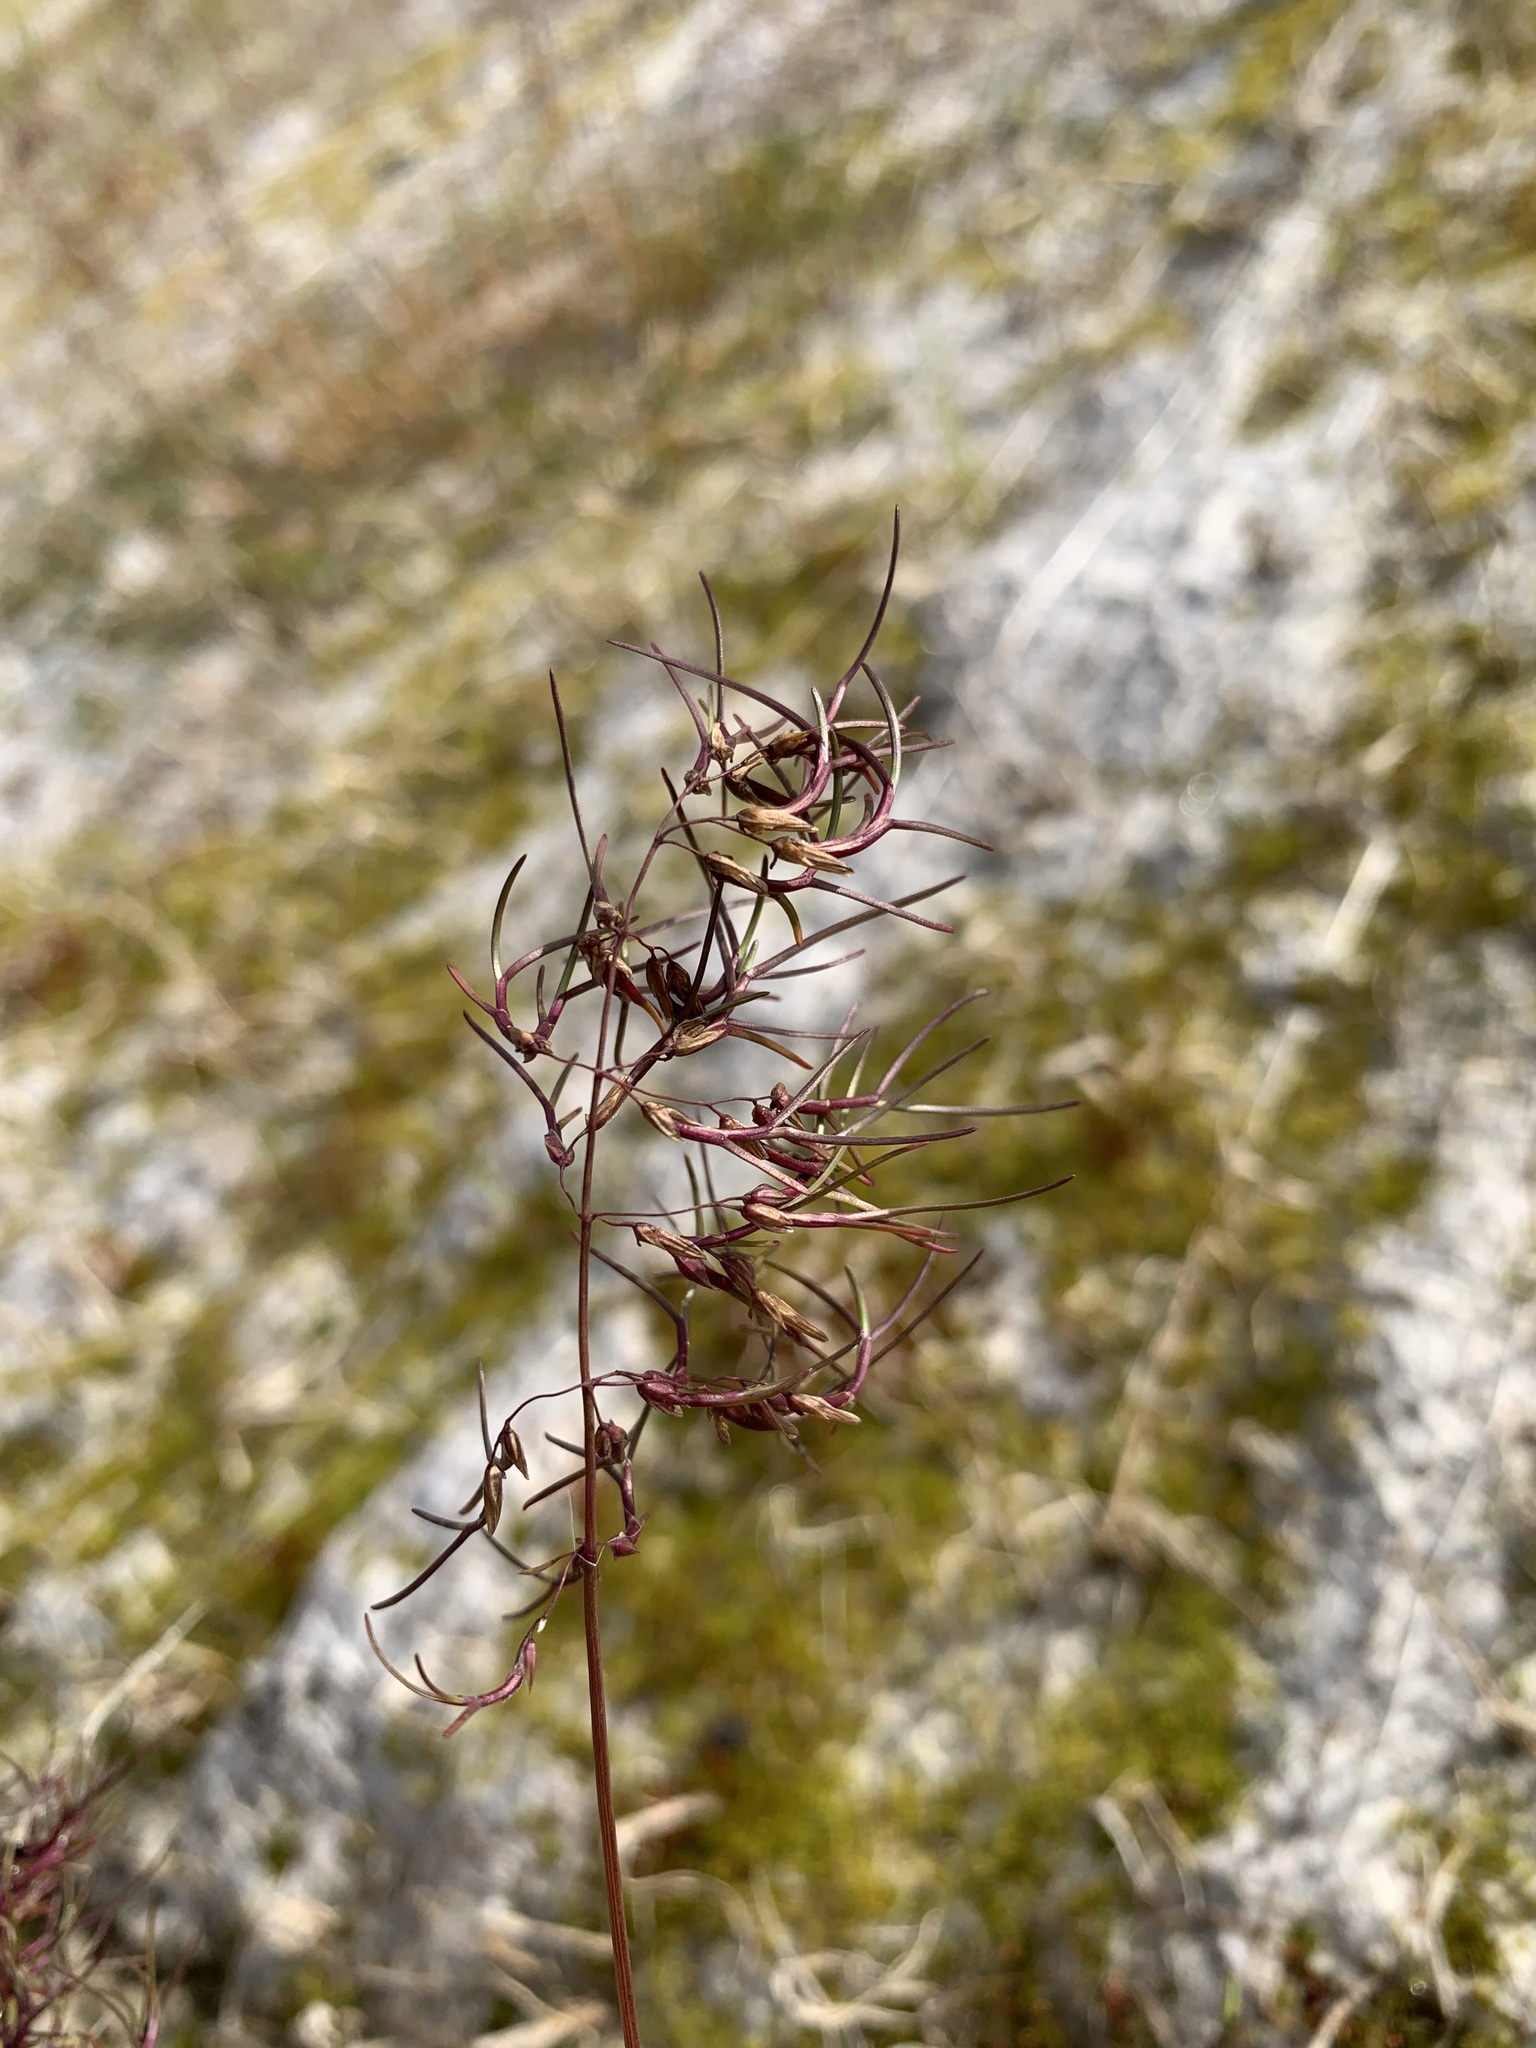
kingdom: Plantae
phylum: Tracheophyta
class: Liliopsida
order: Poales
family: Poaceae
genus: Poa
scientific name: Poa alpigena
